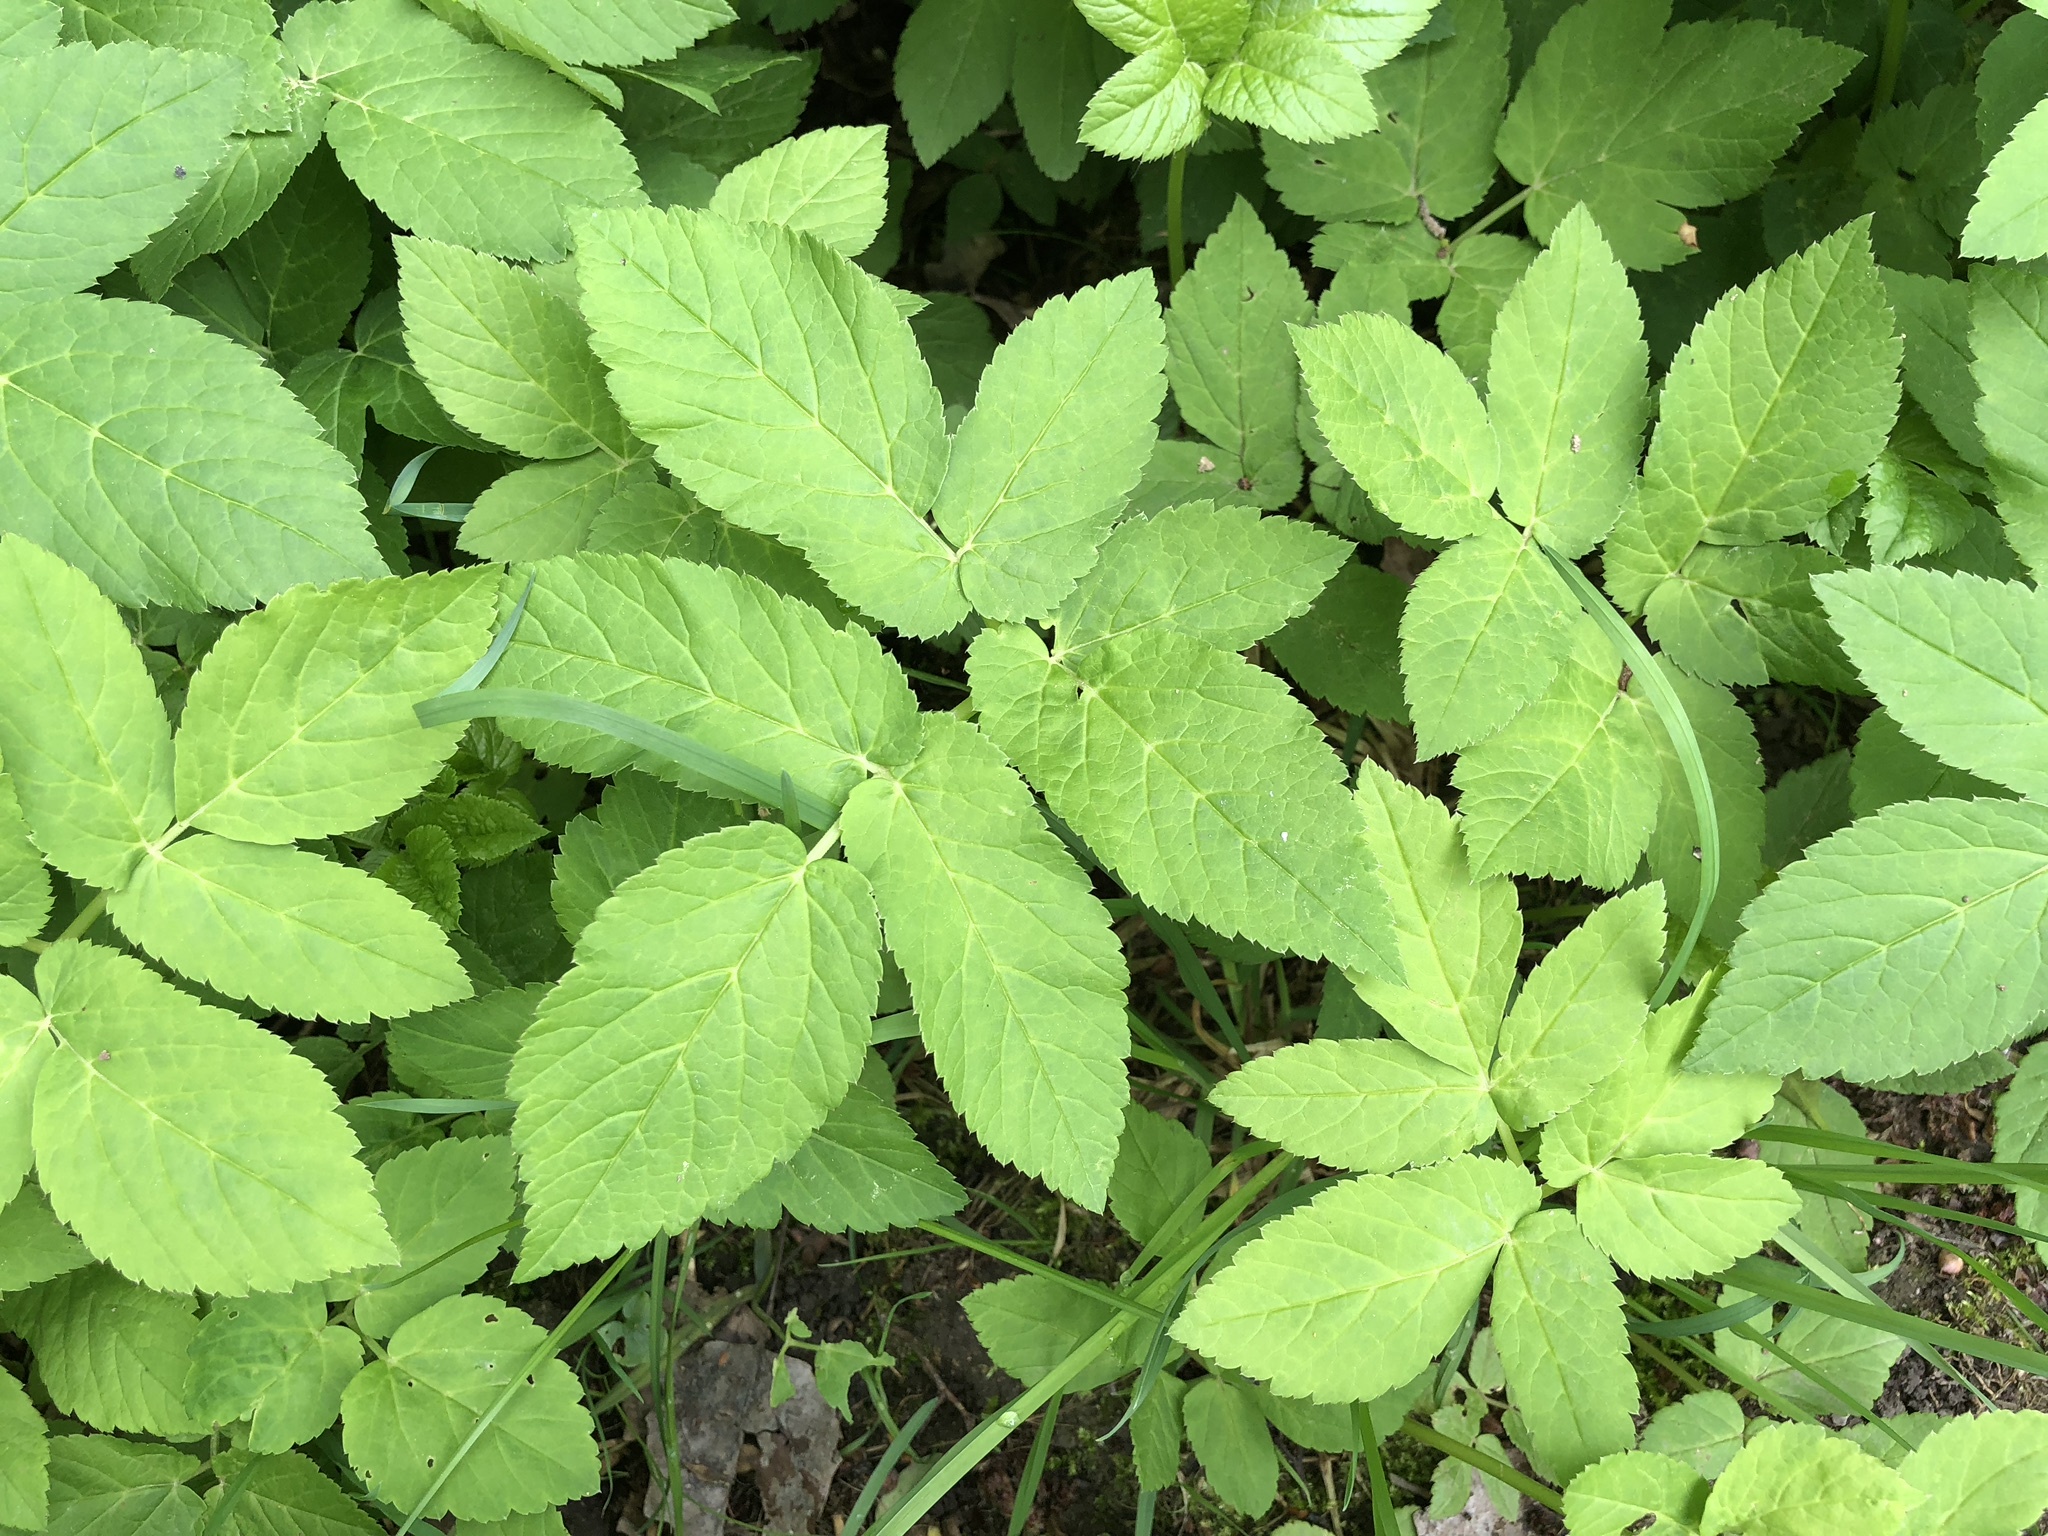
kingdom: Plantae
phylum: Tracheophyta
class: Magnoliopsida
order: Apiales
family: Apiaceae
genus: Aegopodium
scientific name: Aegopodium podagraria
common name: Ground-elder
